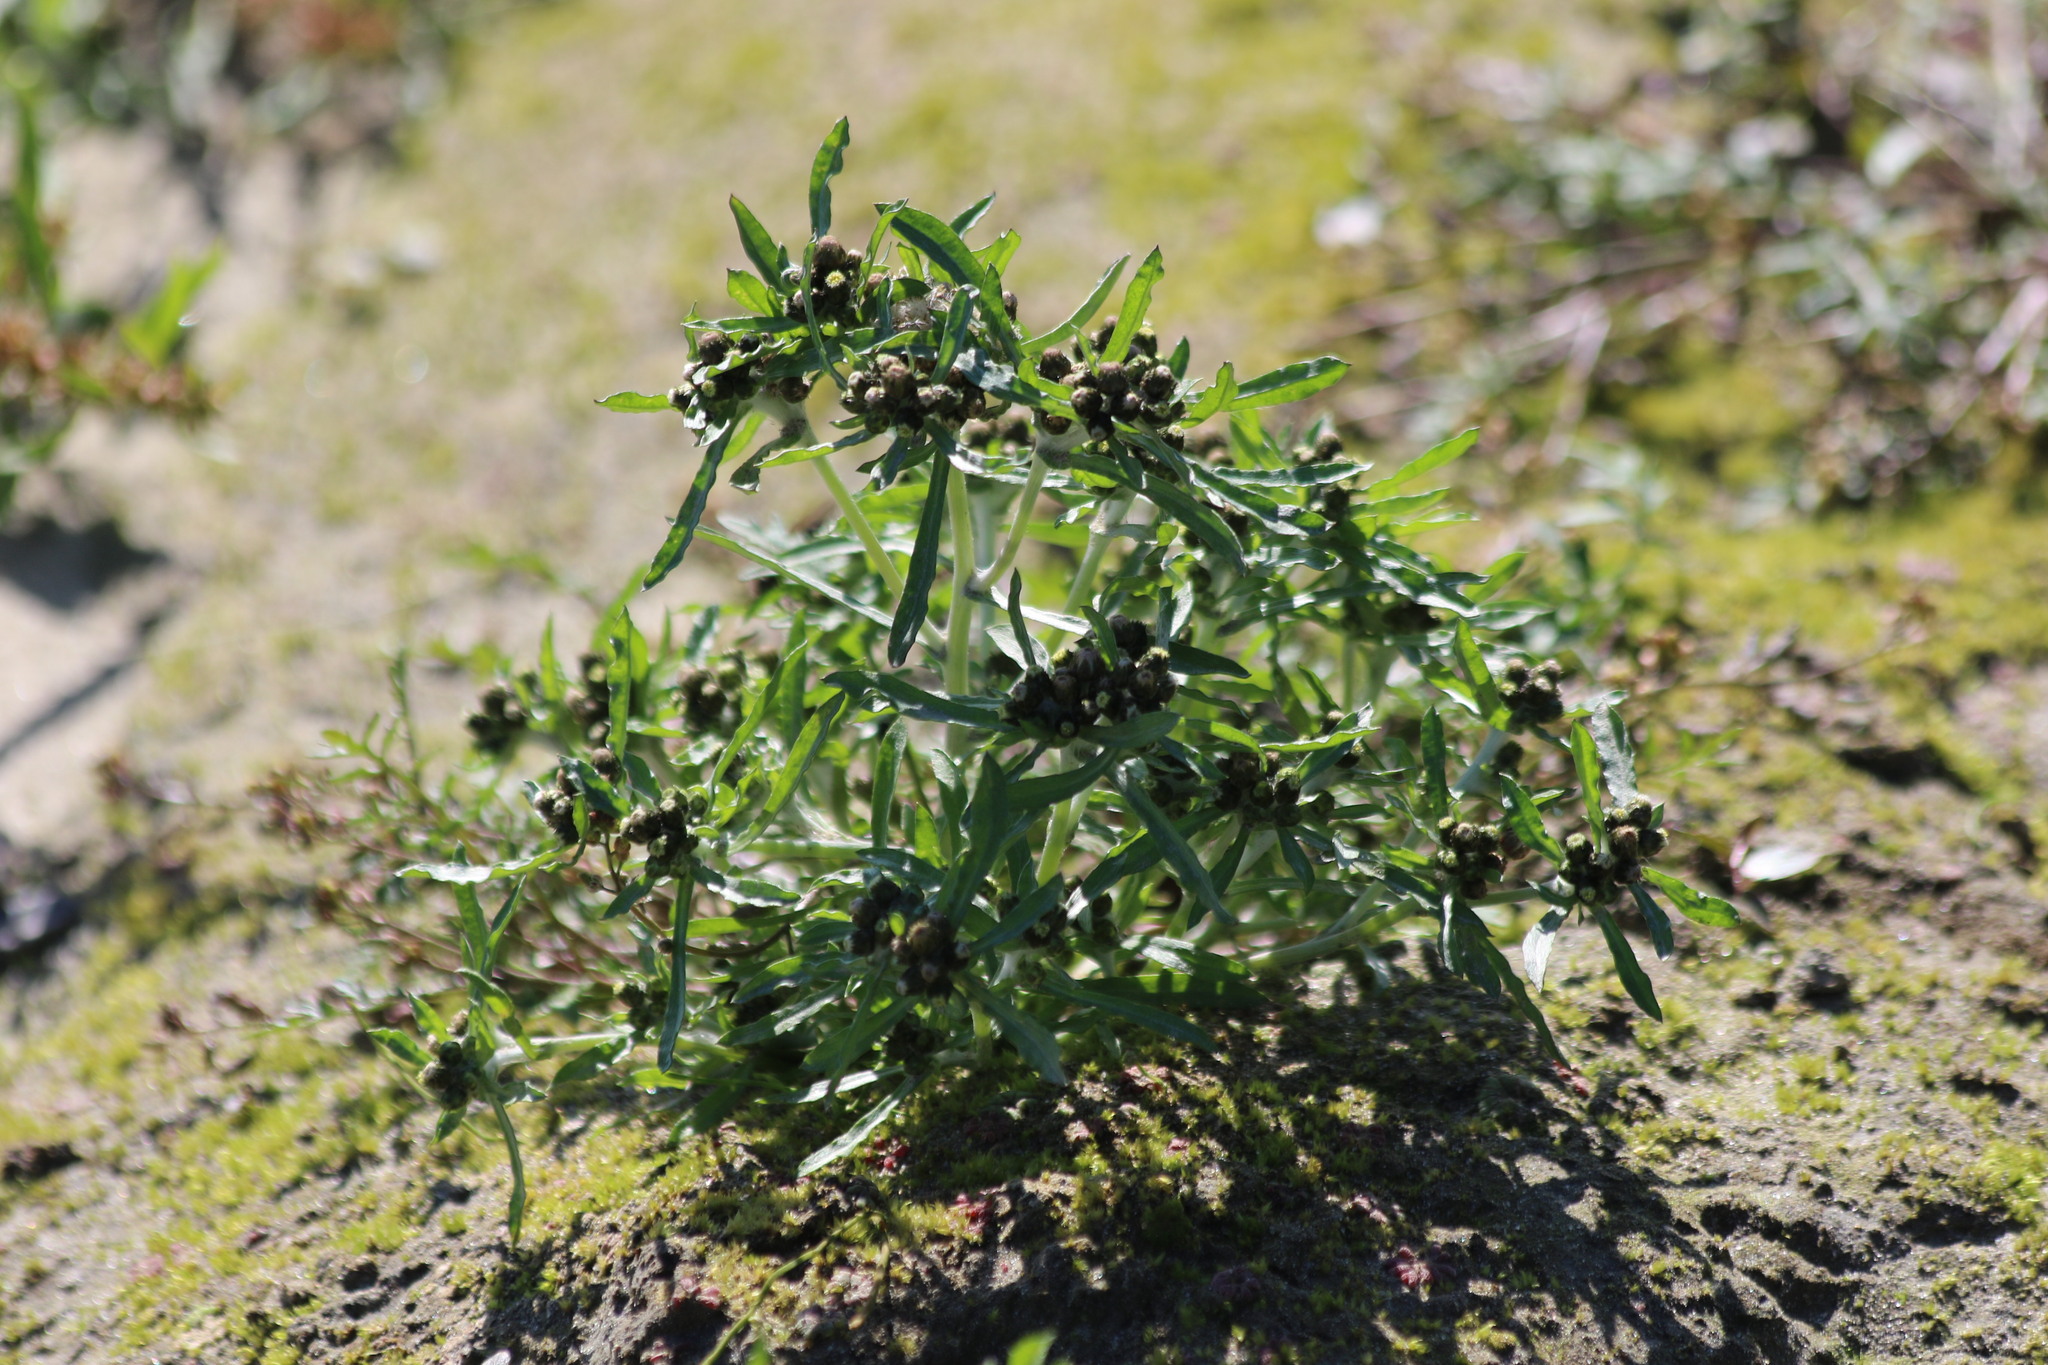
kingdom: Plantae
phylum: Tracheophyta
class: Magnoliopsida
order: Asterales
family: Asteraceae
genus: Gnaphalium
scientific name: Gnaphalium uliginosum
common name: Marsh cudweed
